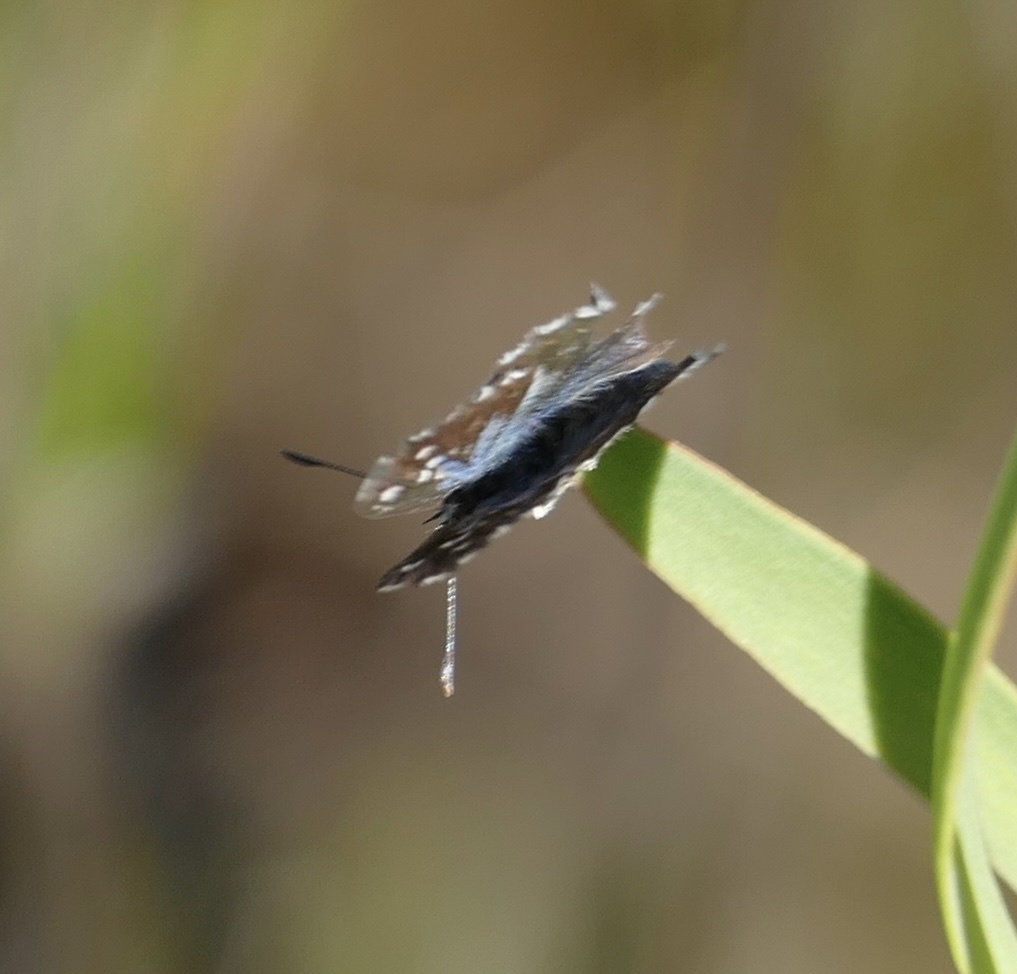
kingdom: Animalia
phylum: Arthropoda
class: Insecta
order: Lepidoptera
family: Lycaenidae
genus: Tarucus
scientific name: Tarucus thespis
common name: Vivid dotted blue
